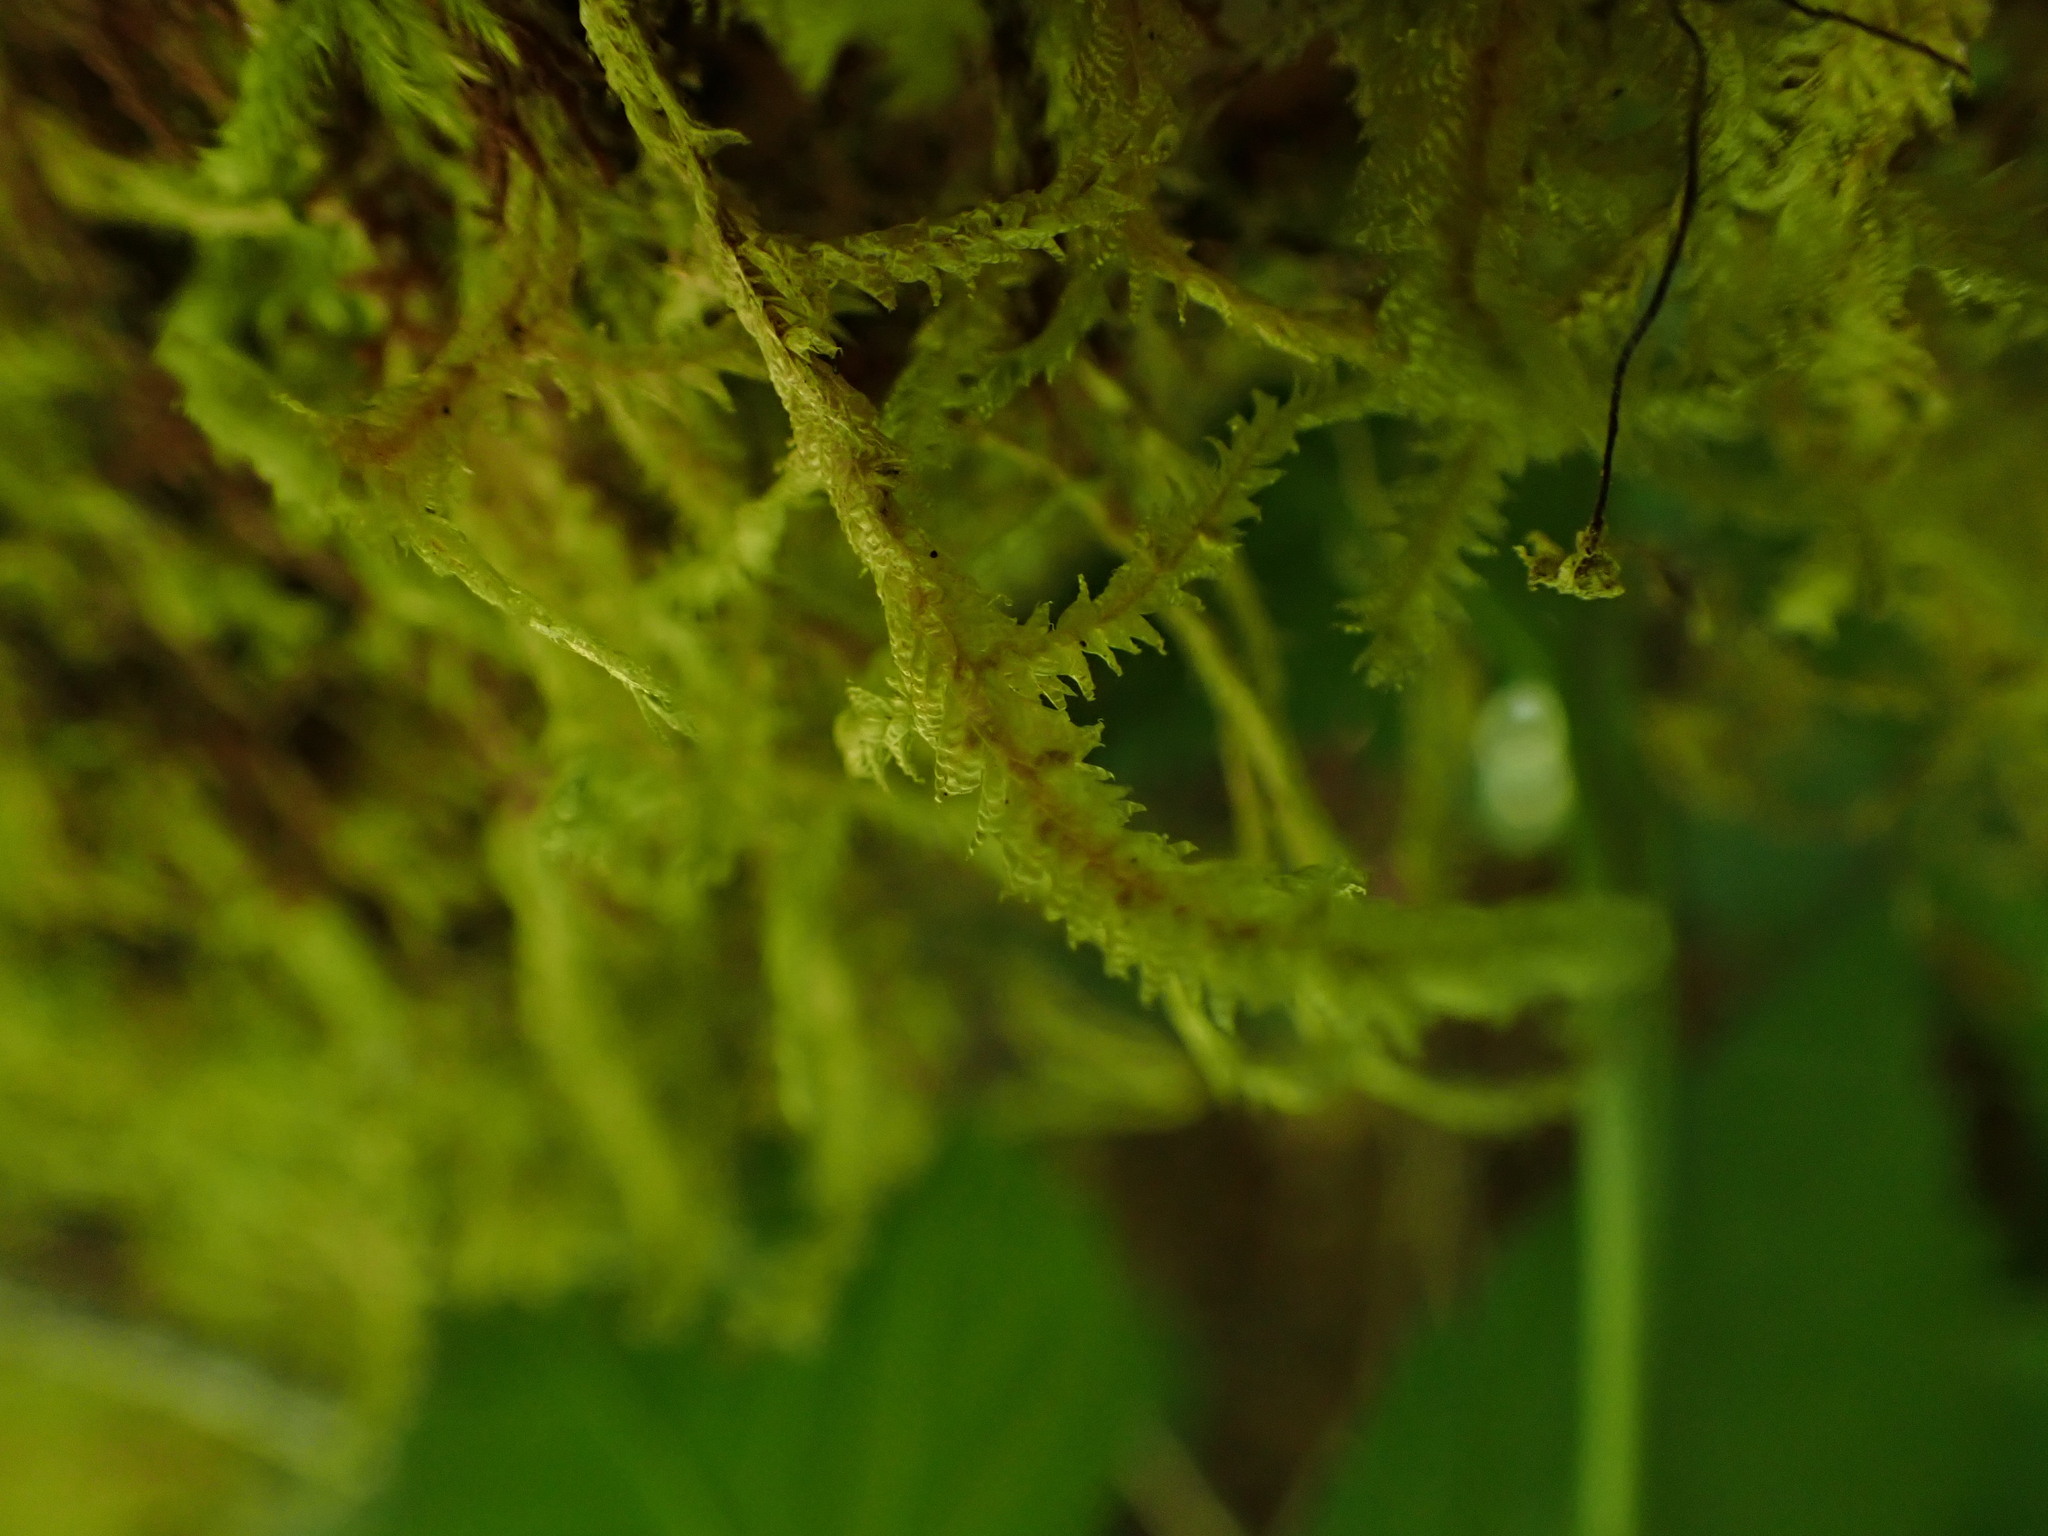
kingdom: Plantae
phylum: Bryophyta
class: Bryopsida
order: Hypnales
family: Neckeraceae
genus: Neckera
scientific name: Neckera douglasii
